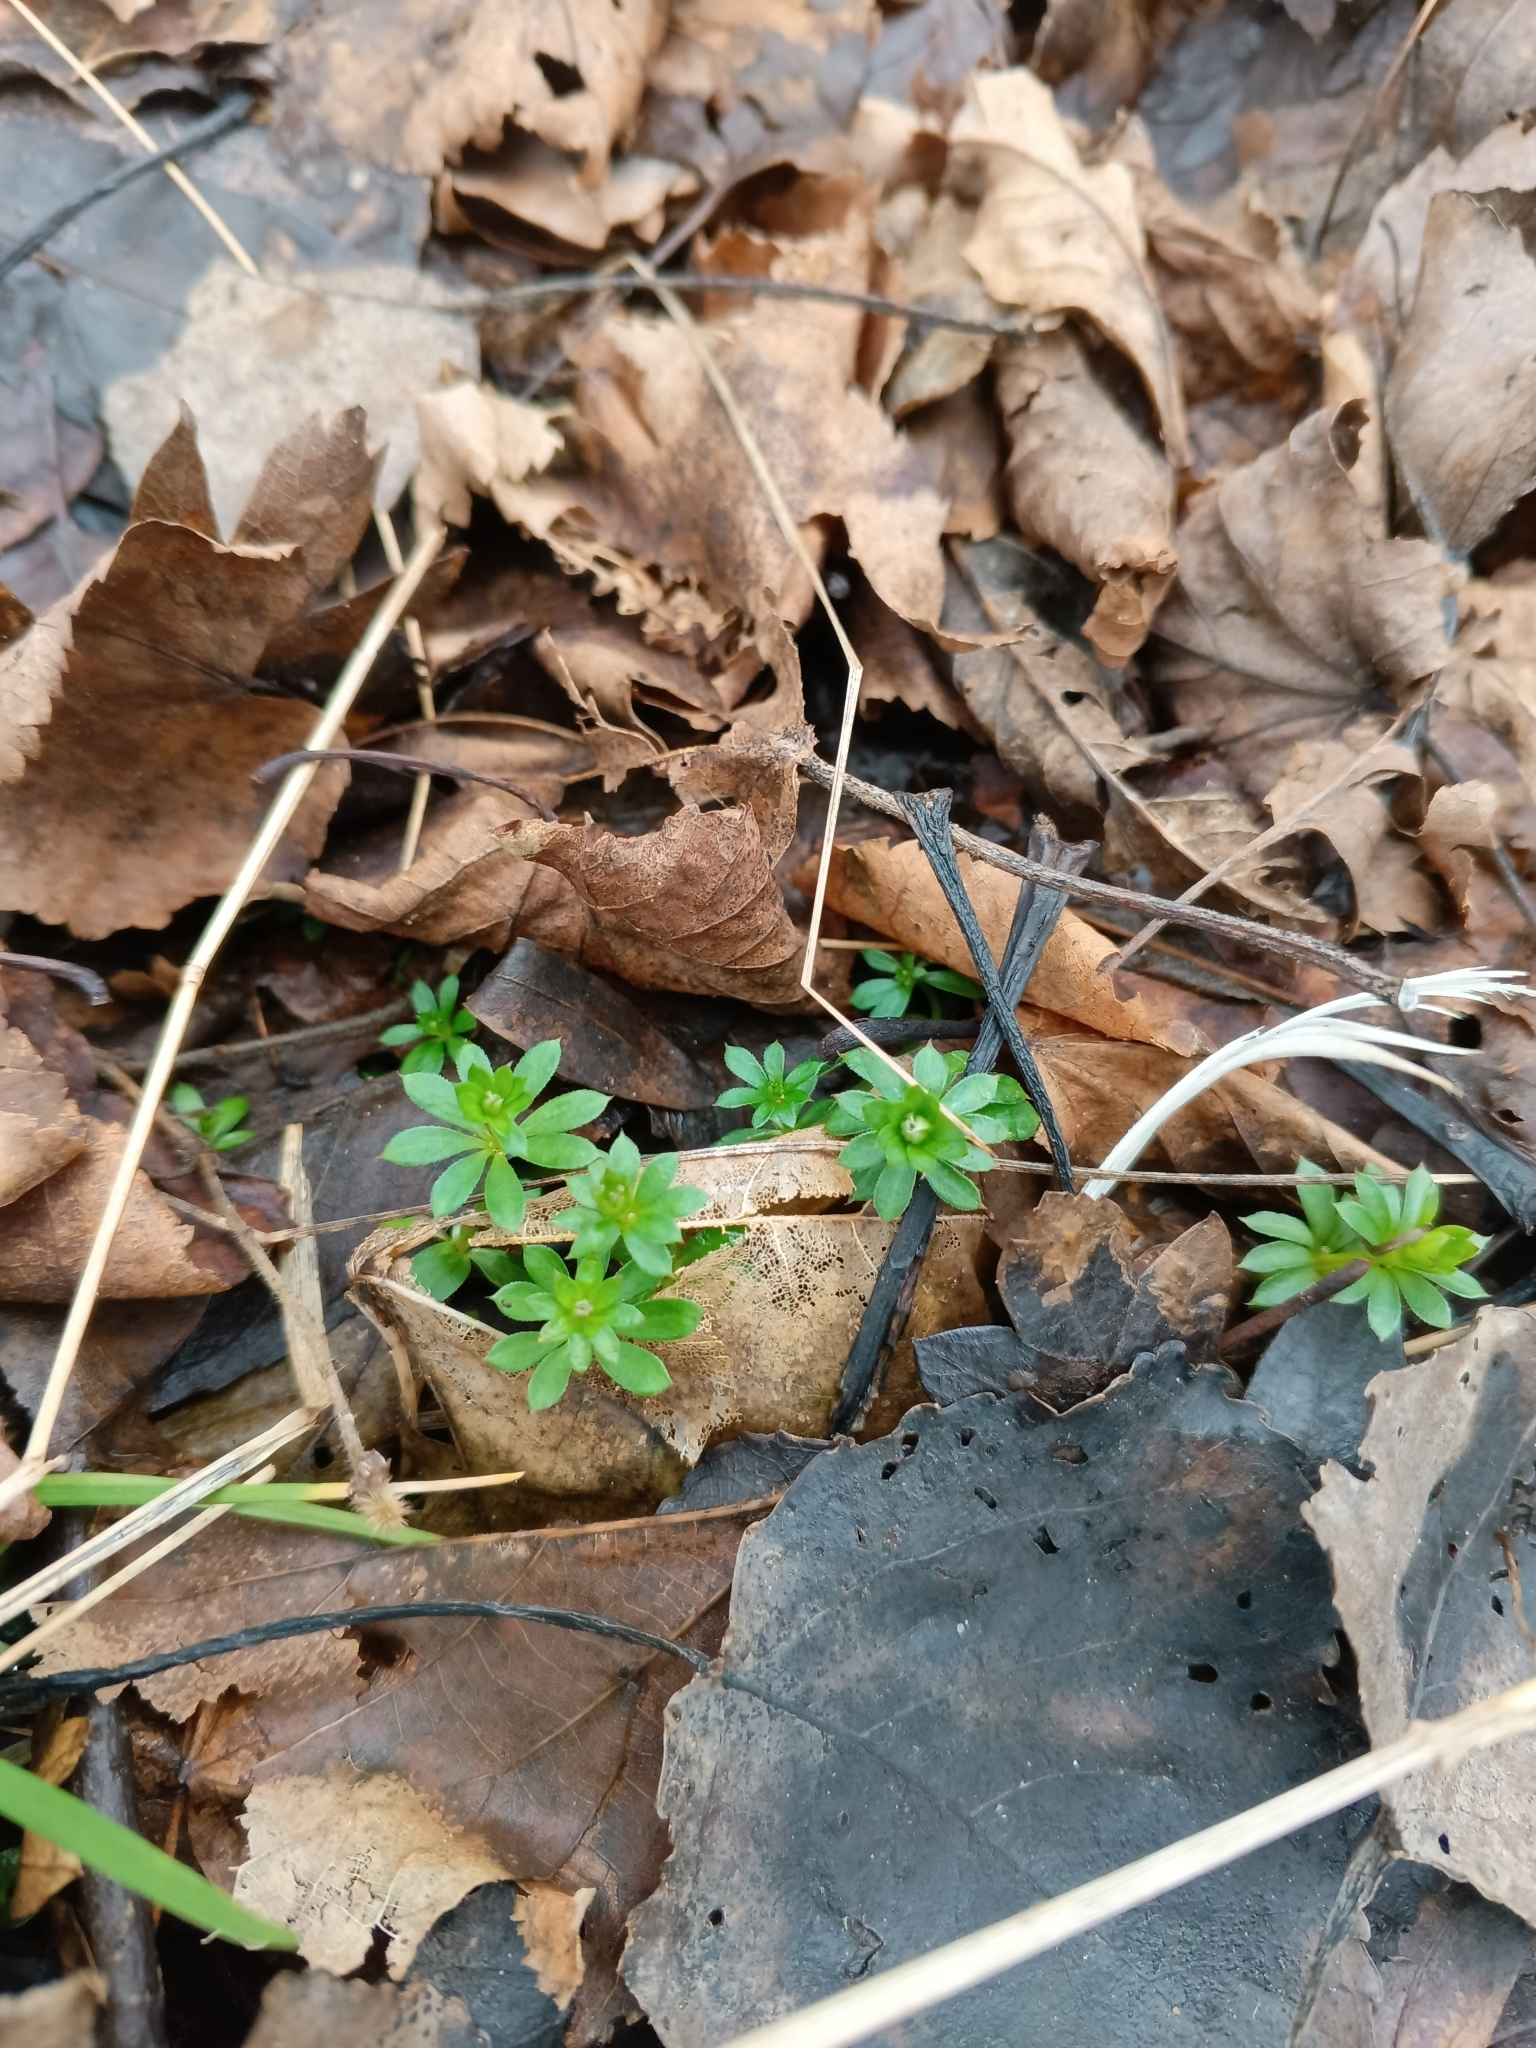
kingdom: Plantae
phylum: Tracheophyta
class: Magnoliopsida
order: Gentianales
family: Rubiaceae
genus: Galium
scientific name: Galium mollugo
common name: Hedge bedstraw
